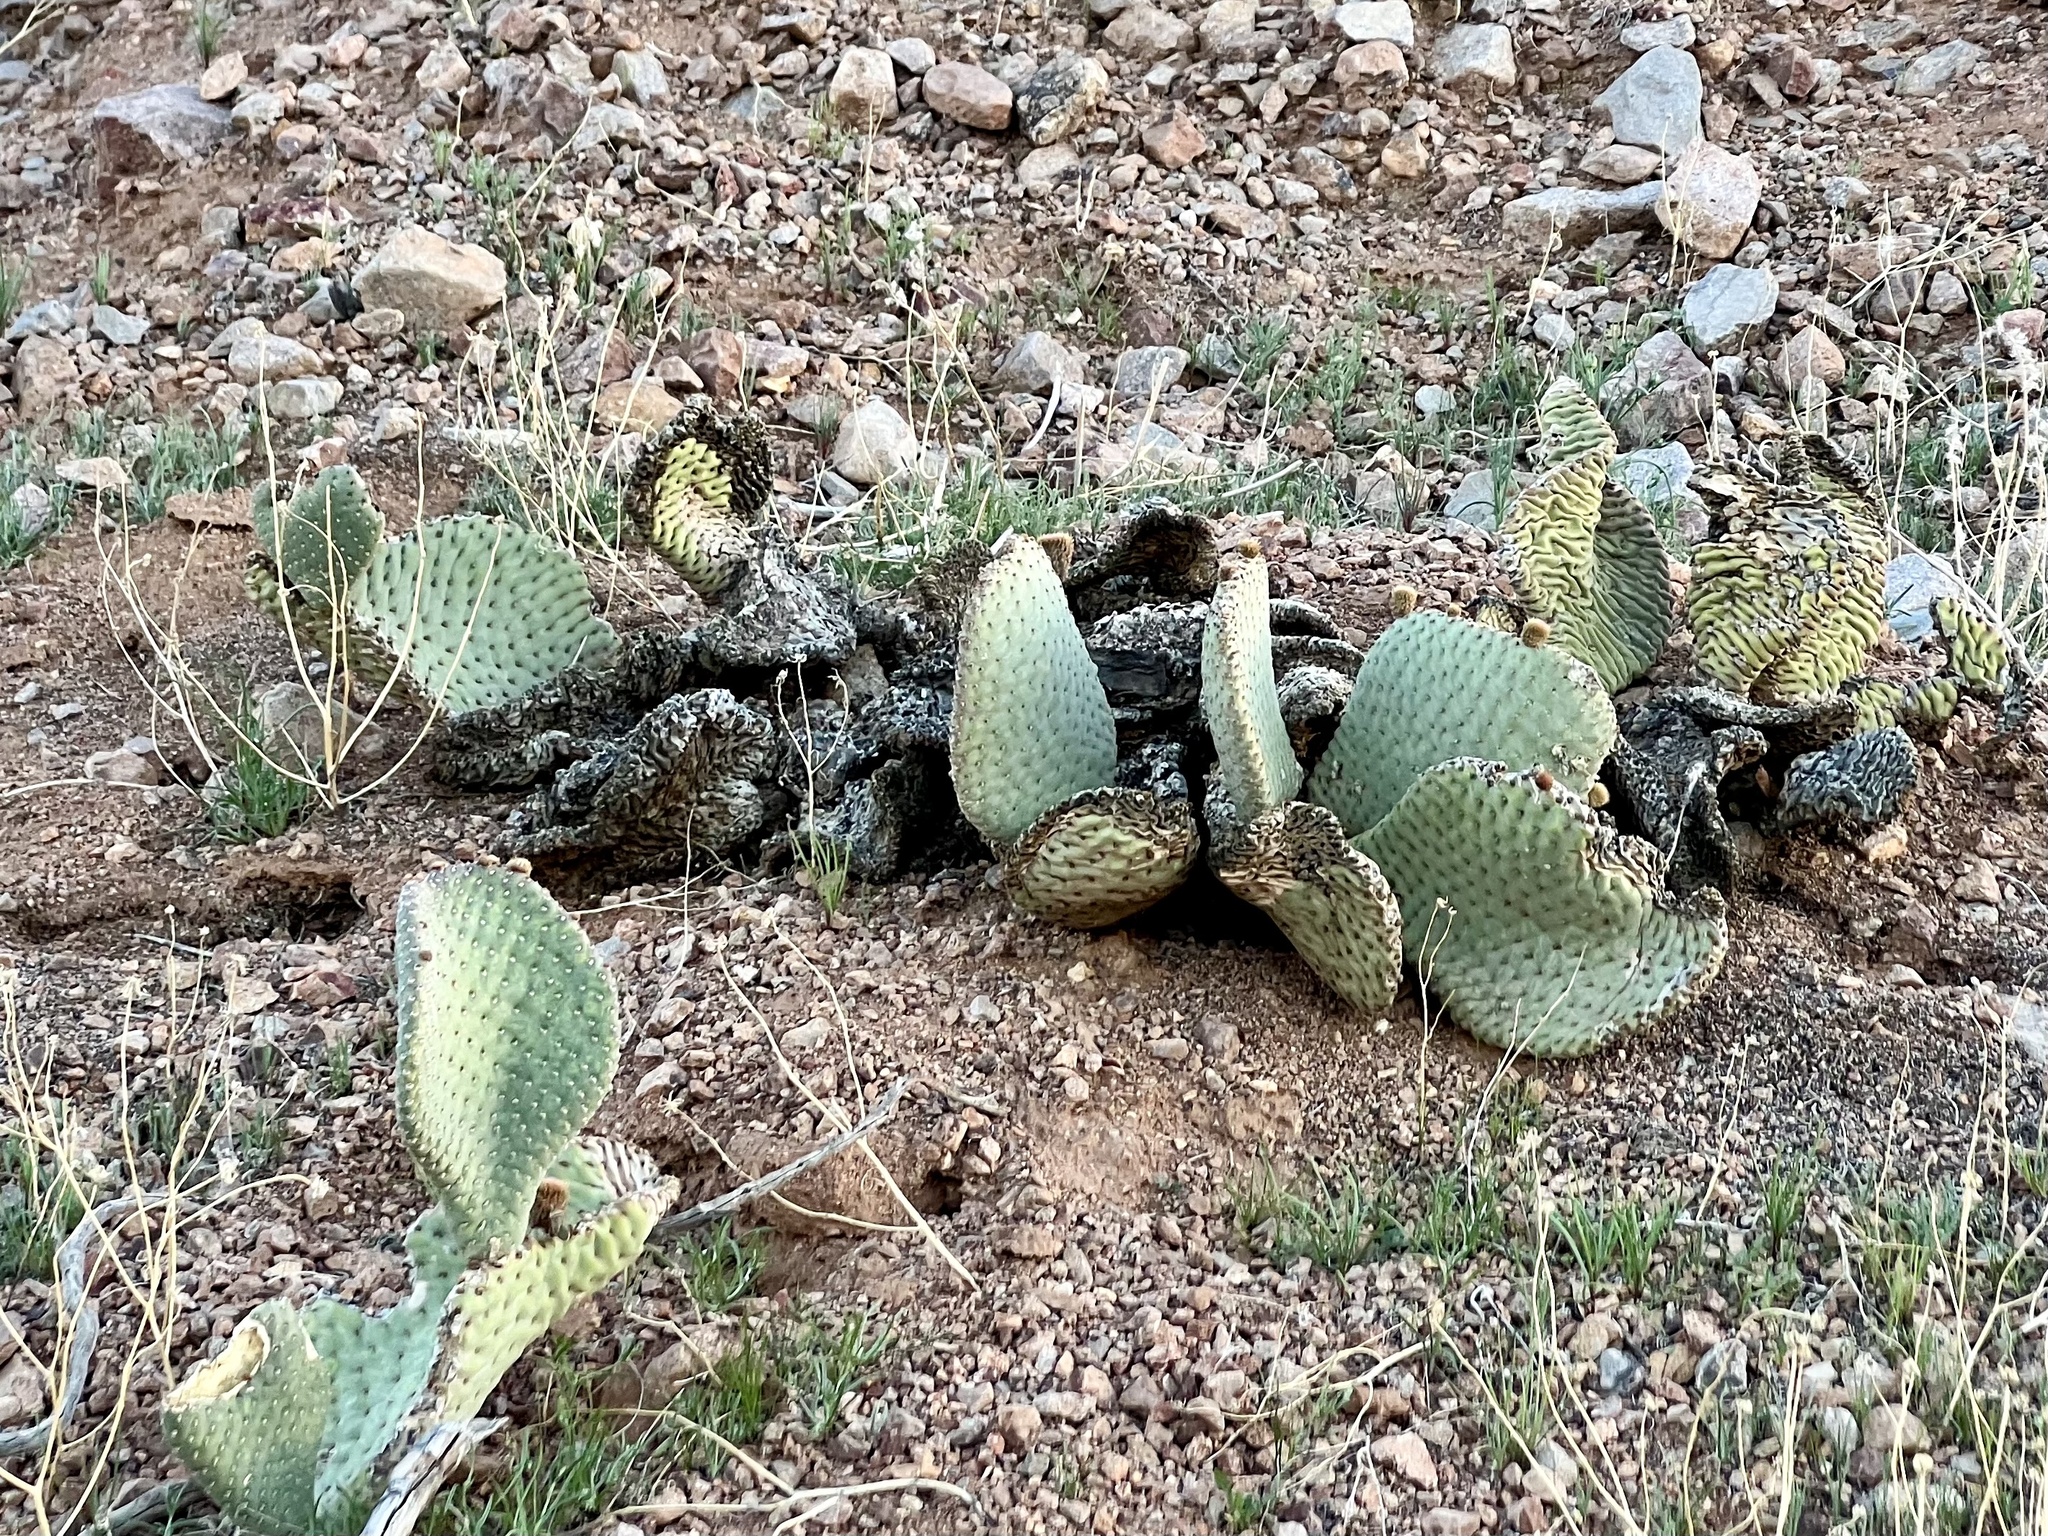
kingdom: Plantae
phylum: Tracheophyta
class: Magnoliopsida
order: Caryophyllales
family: Cactaceae
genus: Opuntia
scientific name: Opuntia basilaris
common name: Beavertail prickly-pear
